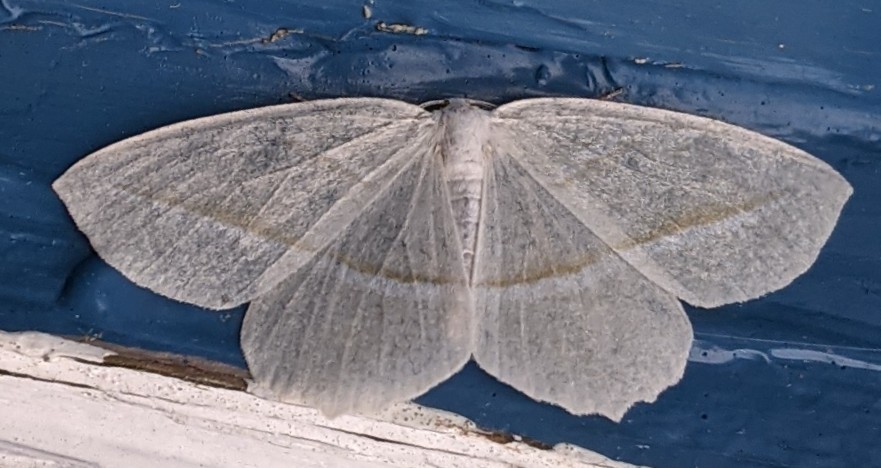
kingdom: Animalia
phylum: Arthropoda
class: Insecta
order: Lepidoptera
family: Geometridae
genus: Campaea
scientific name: Campaea perlata
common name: Fringed looper
